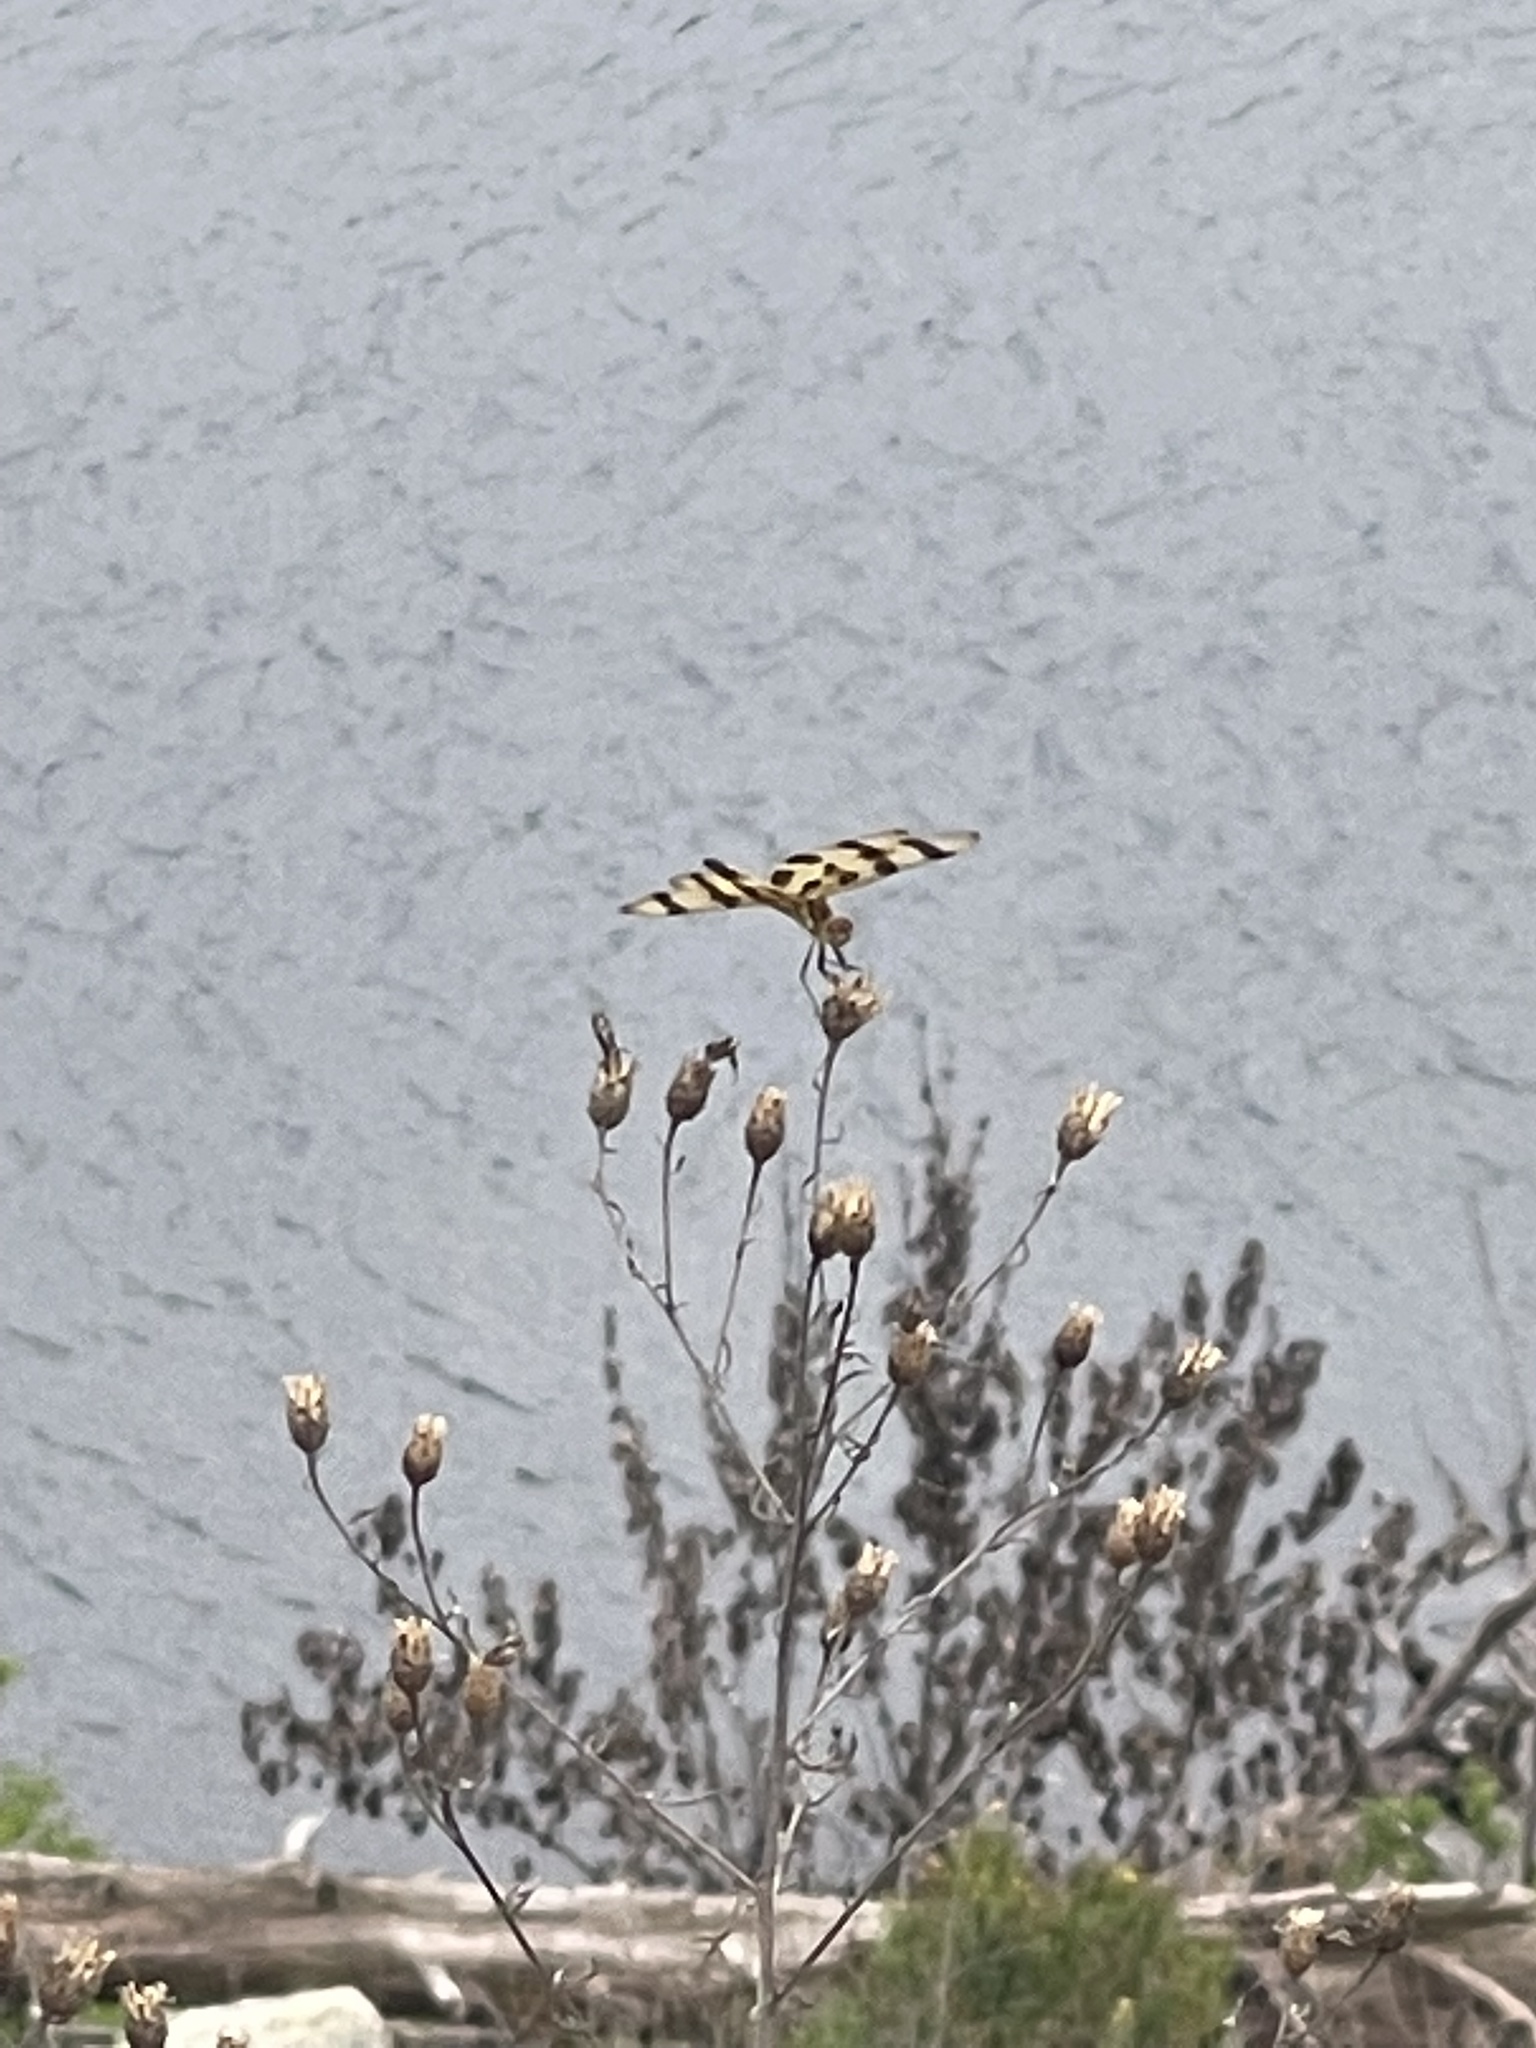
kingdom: Animalia
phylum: Arthropoda
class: Insecta
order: Odonata
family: Libellulidae
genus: Celithemis
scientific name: Celithemis eponina
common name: Halloween pennant
